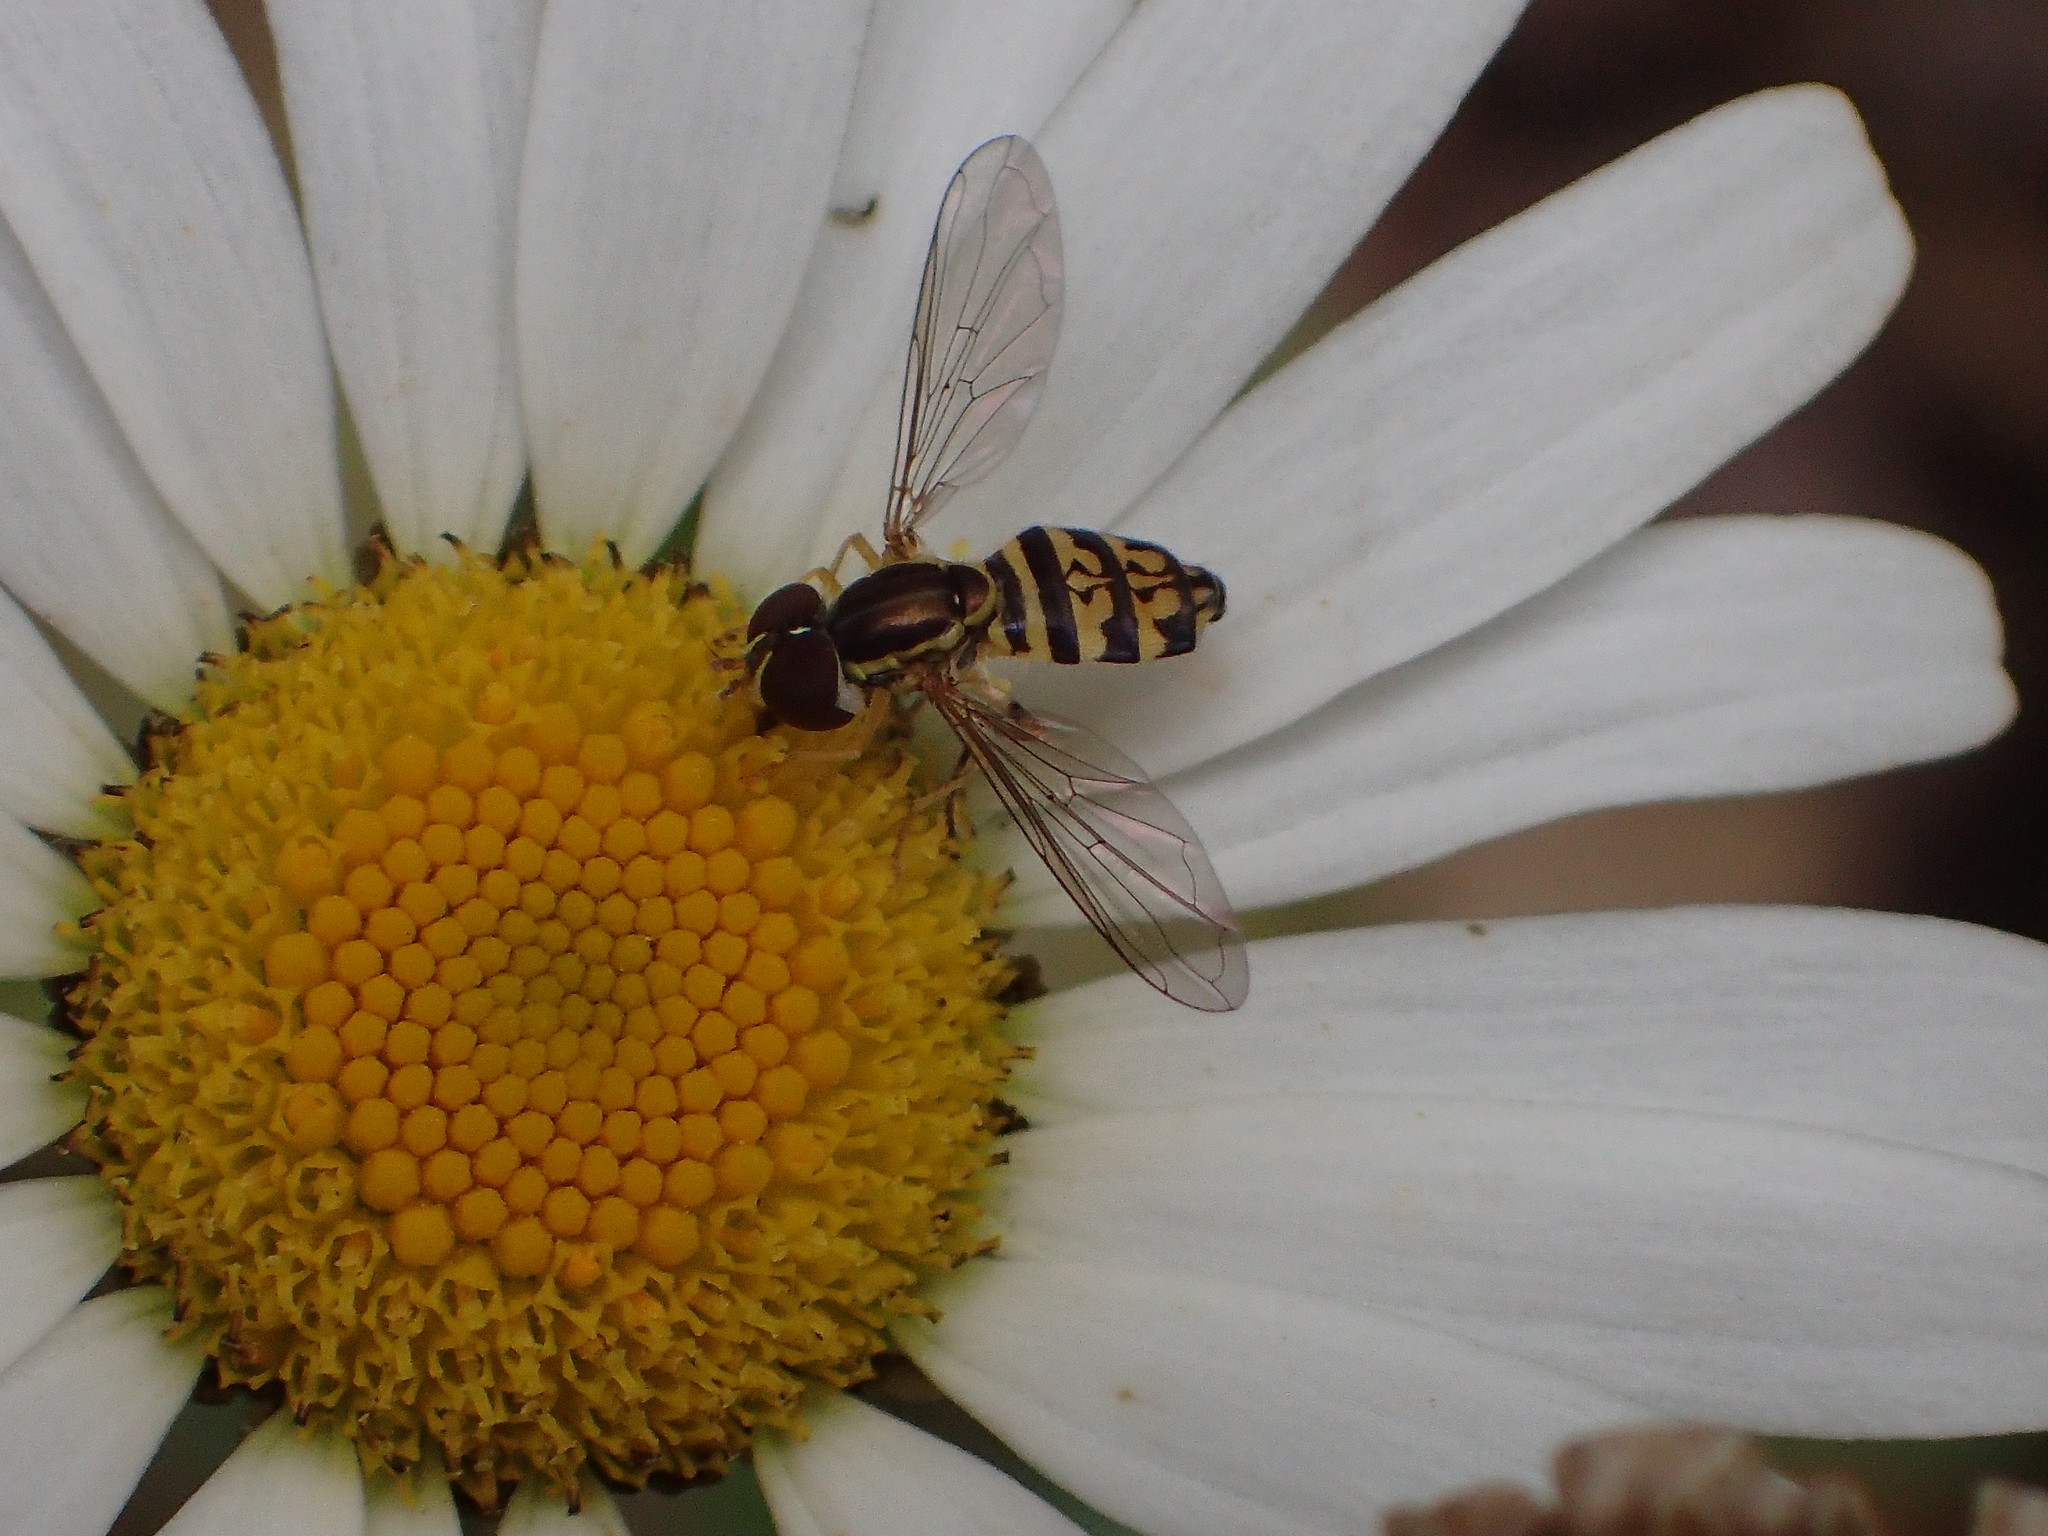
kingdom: Animalia
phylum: Arthropoda
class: Insecta
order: Diptera
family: Syrphidae
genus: Toxomerus
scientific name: Toxomerus geminatus
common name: Eastern calligrapher
